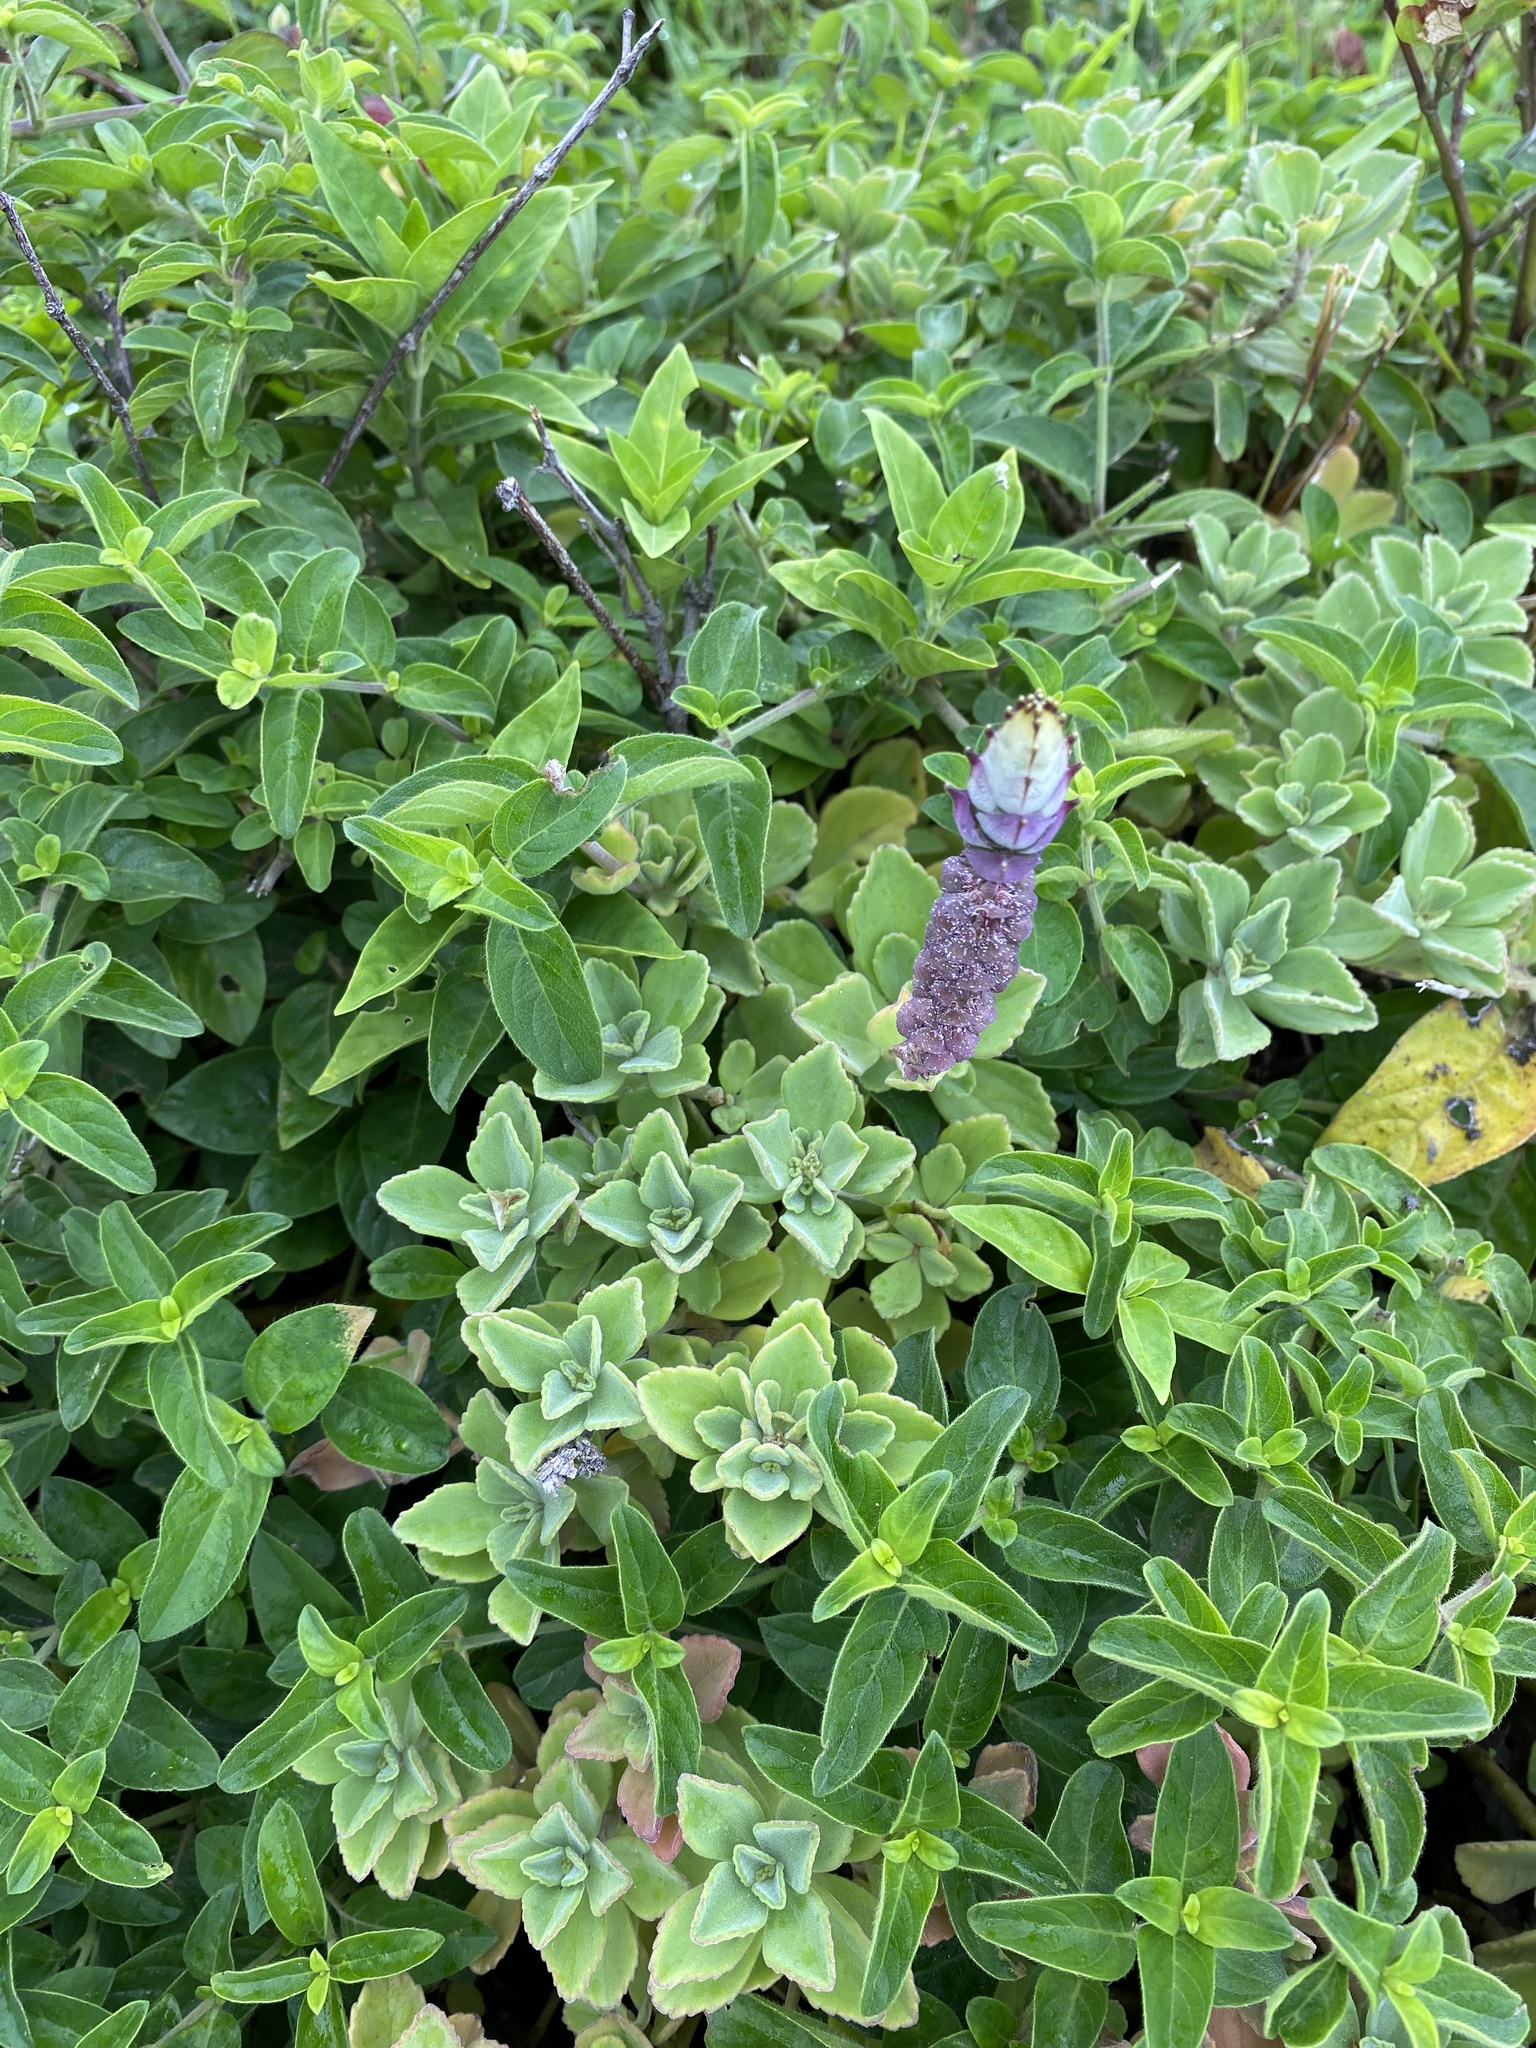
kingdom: Plantae
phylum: Tracheophyta
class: Magnoliopsida
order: Lamiales
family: Lamiaceae
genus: Coleus
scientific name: Coleus neochilus
